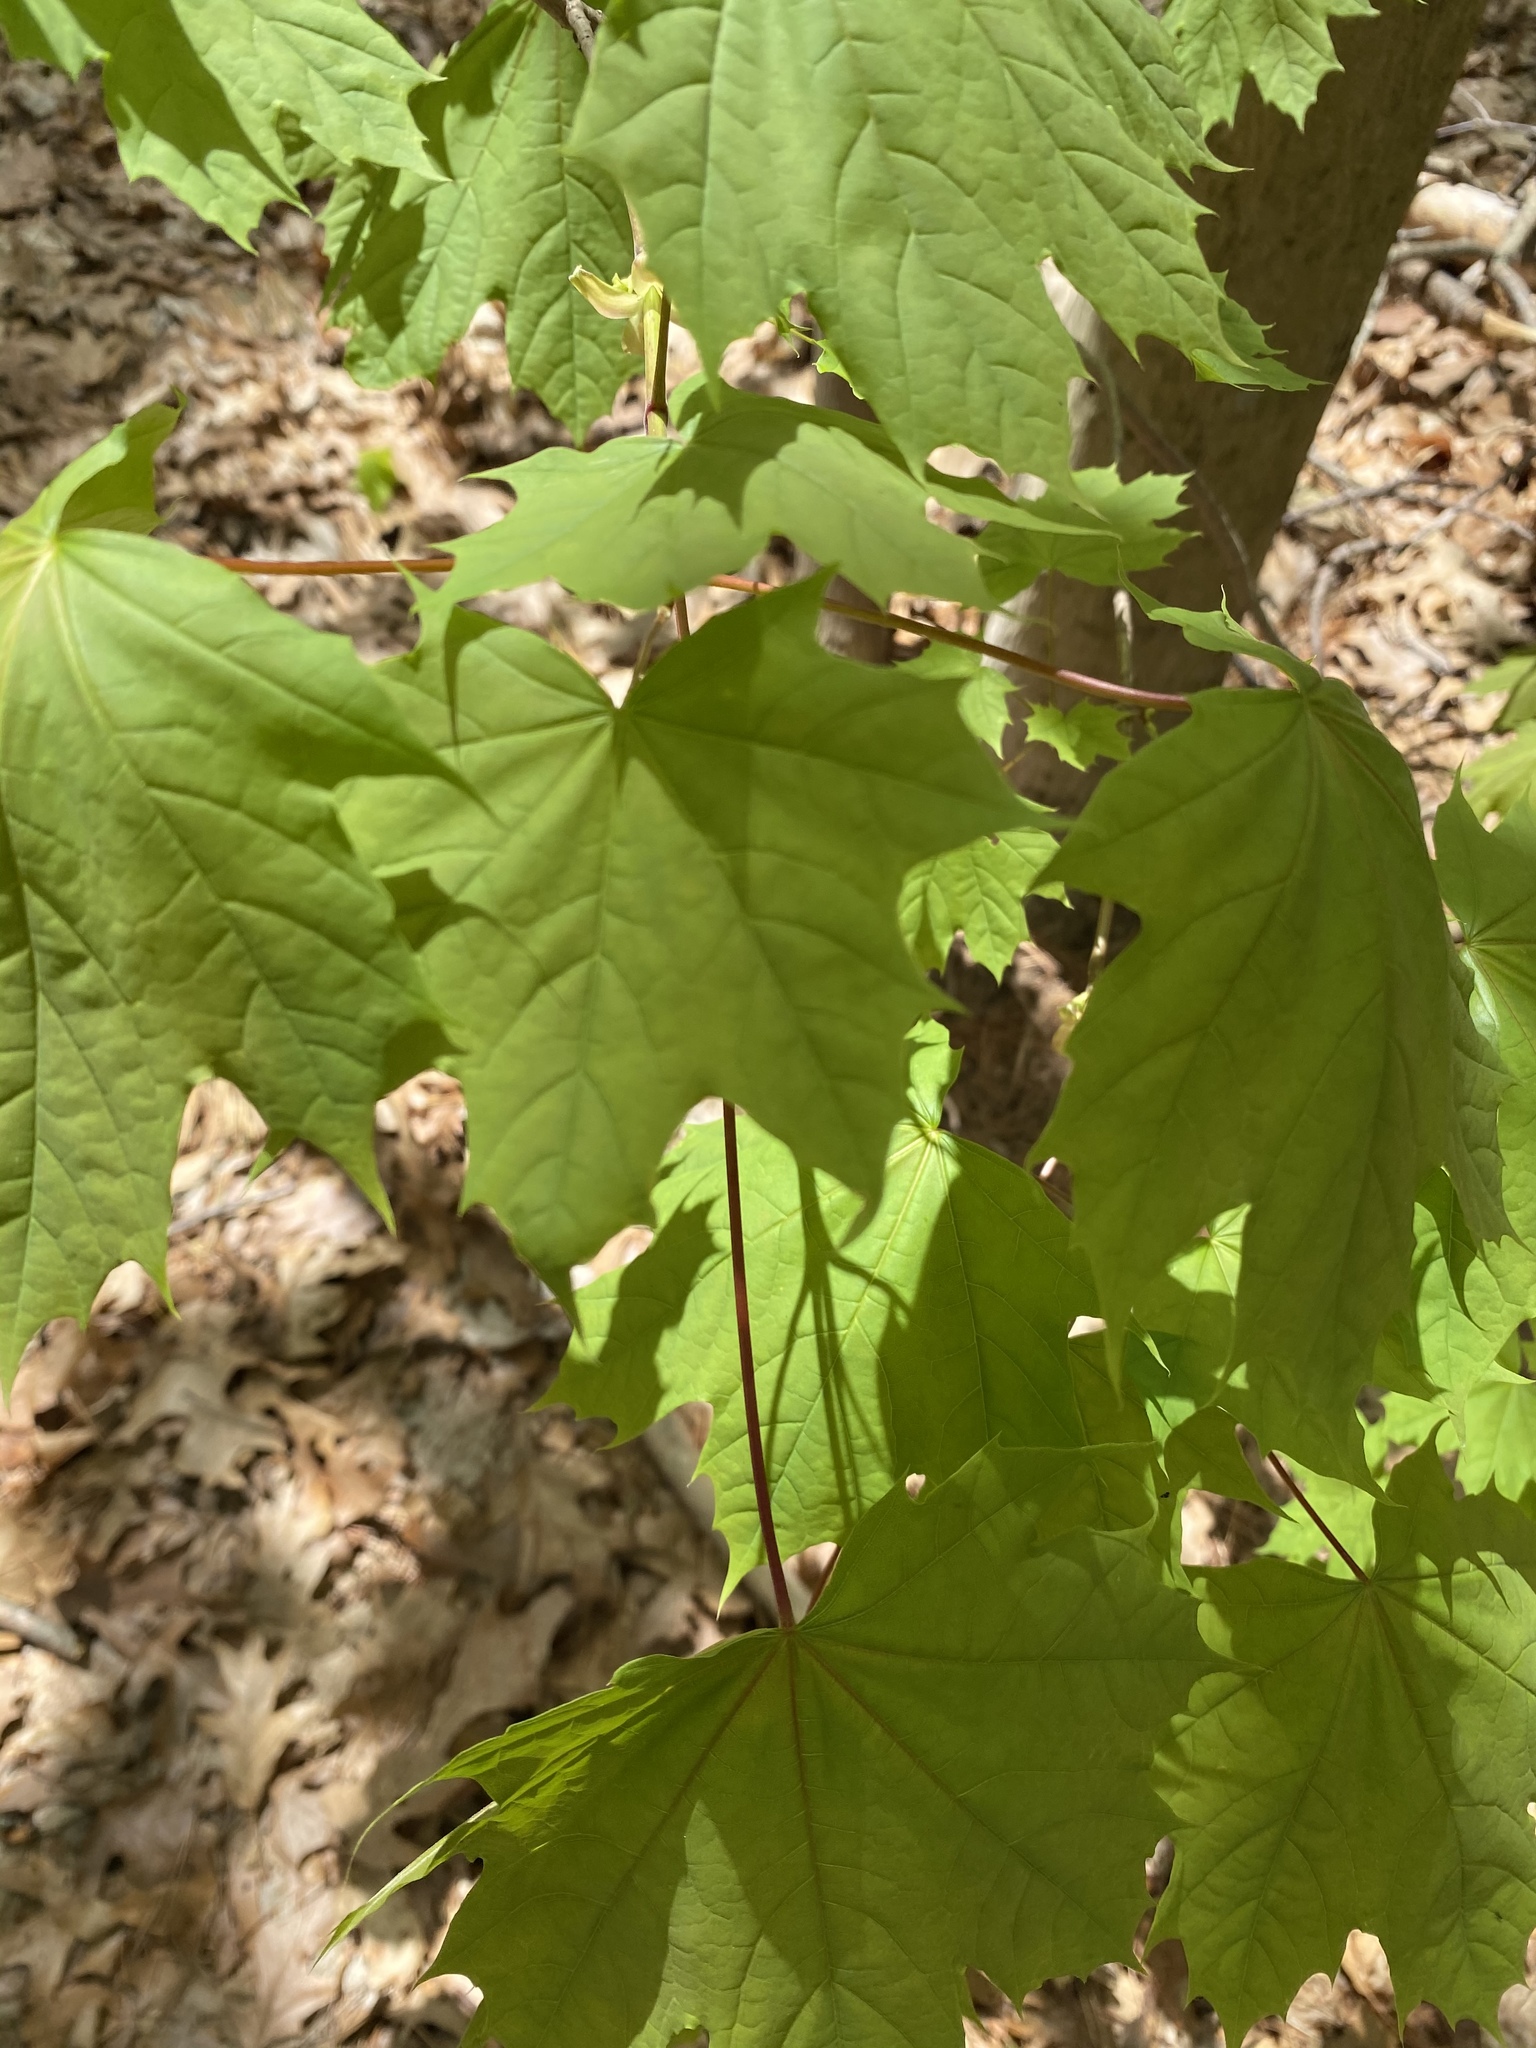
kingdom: Plantae
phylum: Tracheophyta
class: Magnoliopsida
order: Sapindales
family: Sapindaceae
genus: Acer
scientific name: Acer platanoides
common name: Norway maple
